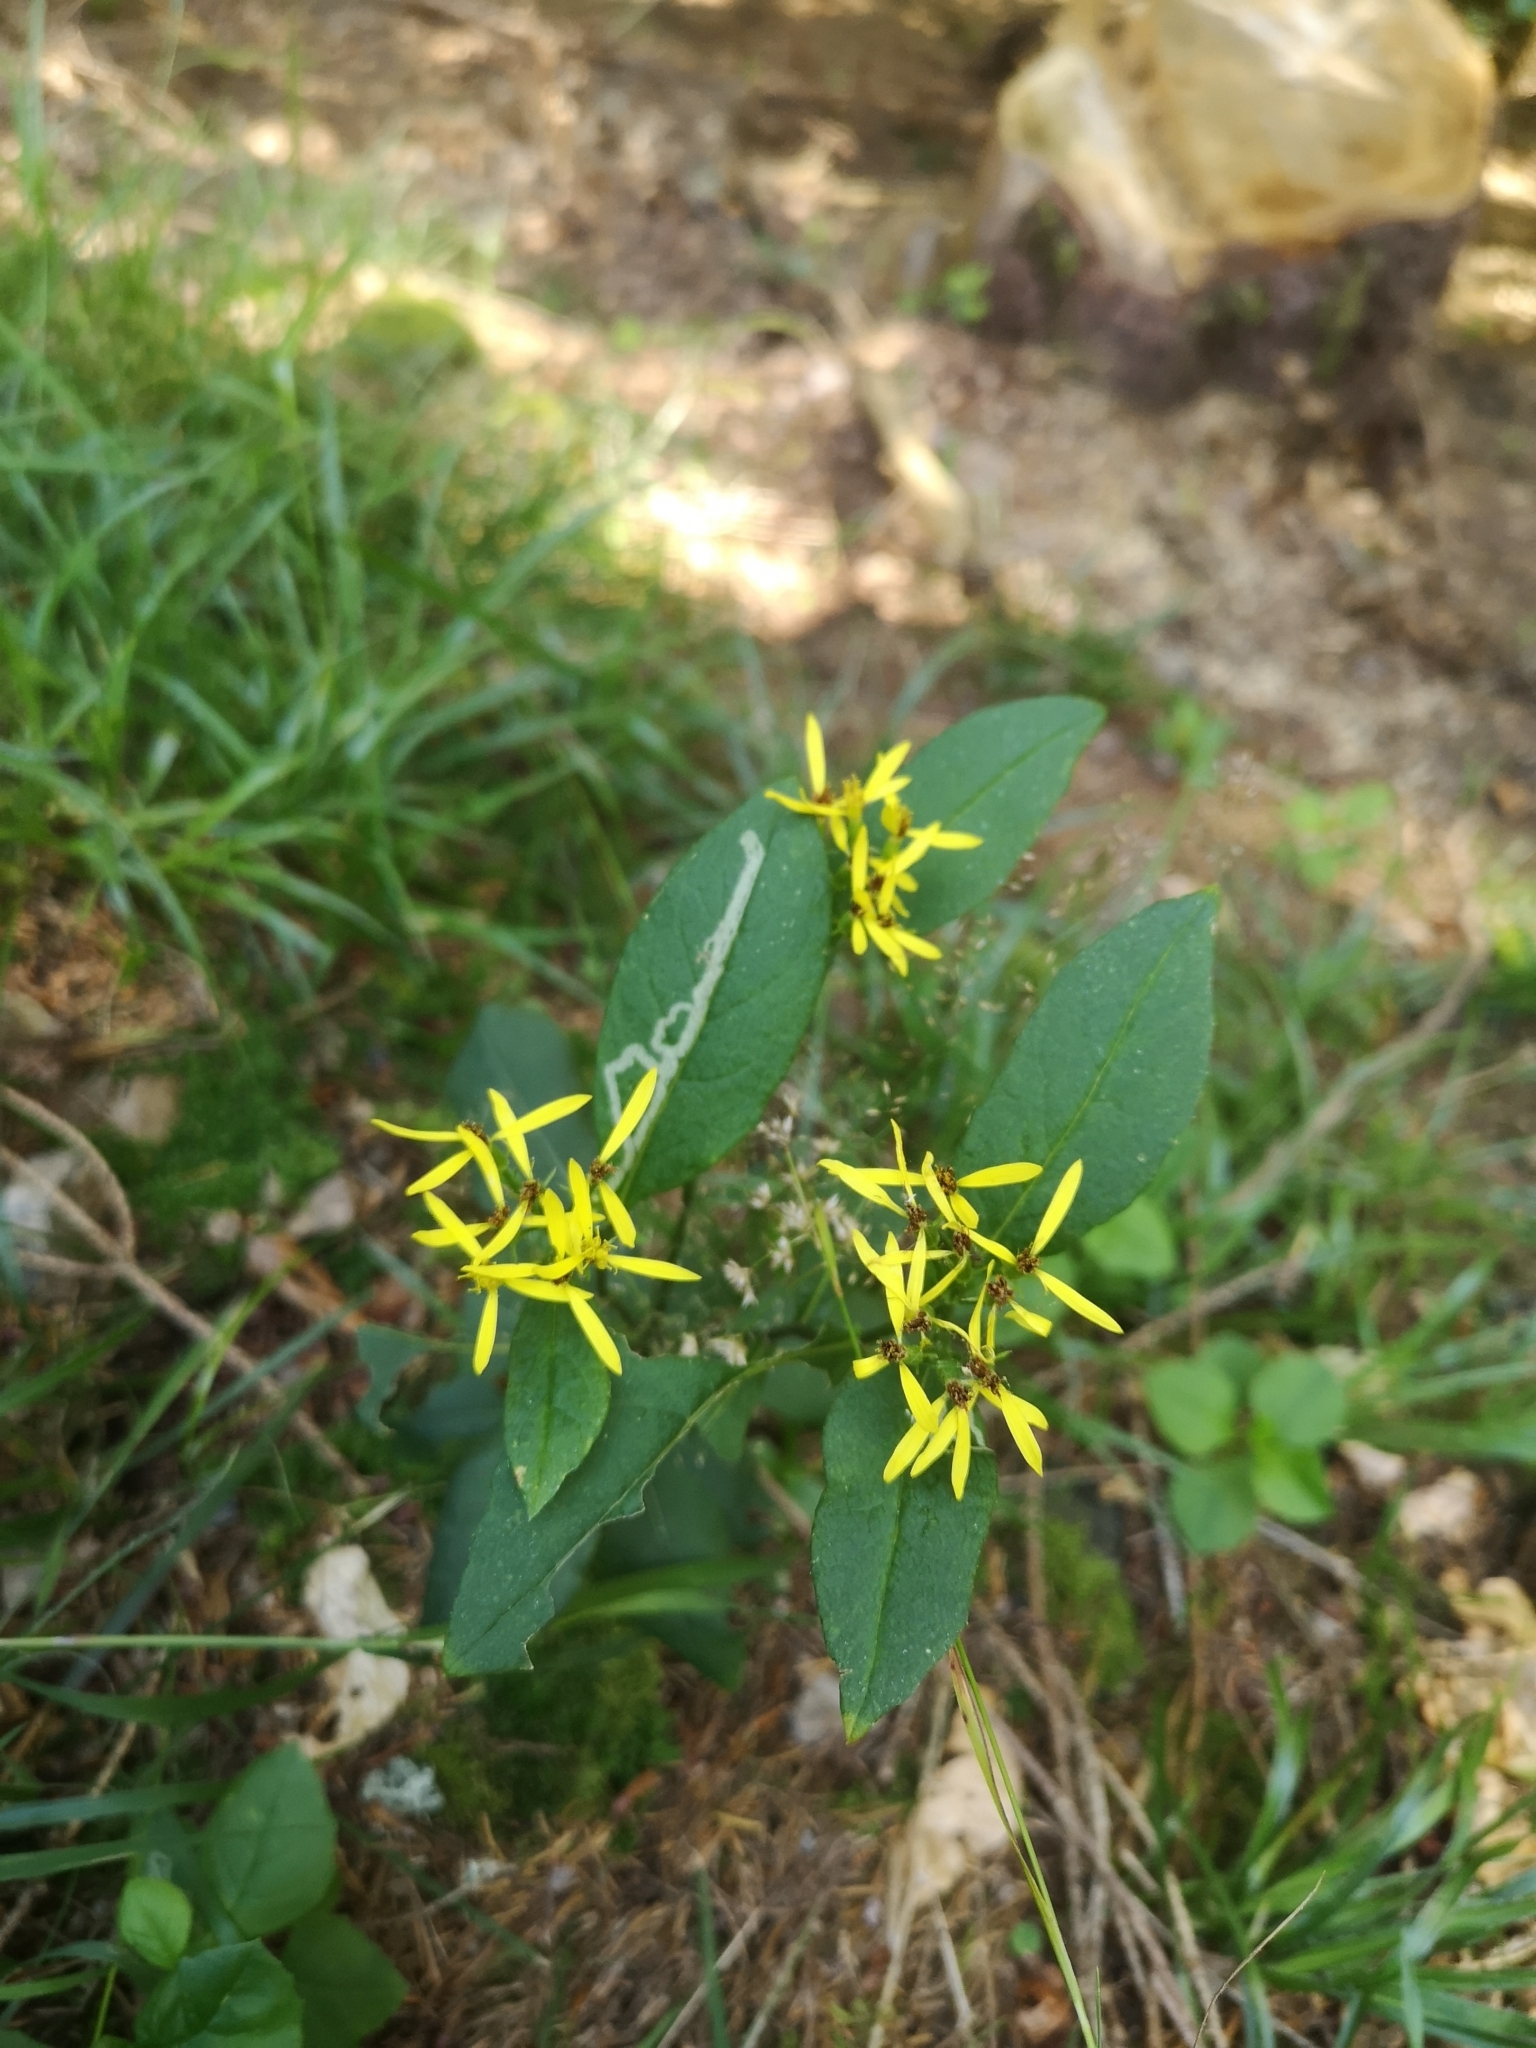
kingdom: Plantae
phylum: Tracheophyta
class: Magnoliopsida
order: Asterales
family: Asteraceae
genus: Senecio
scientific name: Senecio ovatus
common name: Wood ragwort
